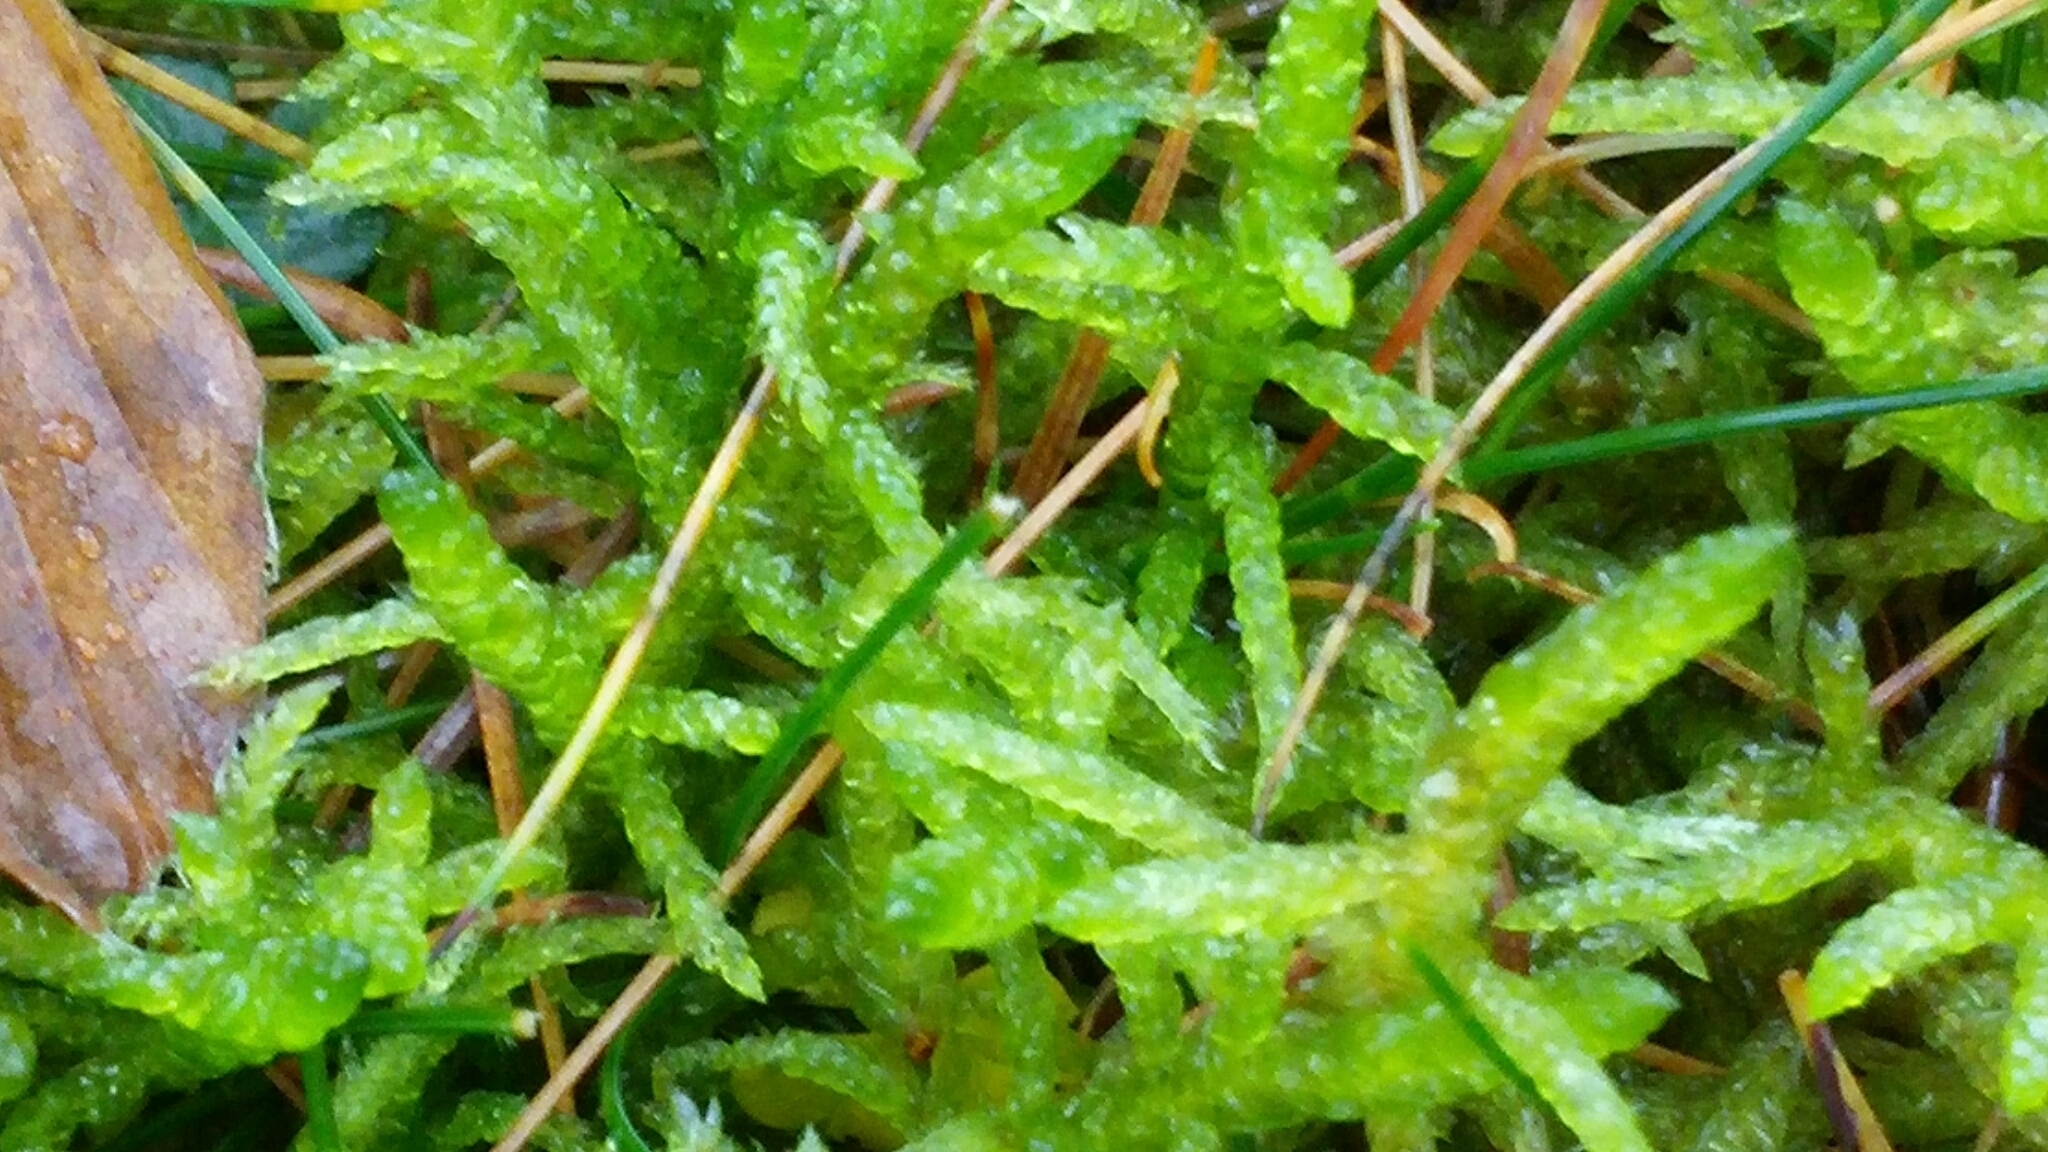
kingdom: Plantae
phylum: Bryophyta
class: Bryopsida
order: Hypnales
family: Brachytheciaceae
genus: Pseudoscleropodium
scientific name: Pseudoscleropodium purum
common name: Neat feather-moss
